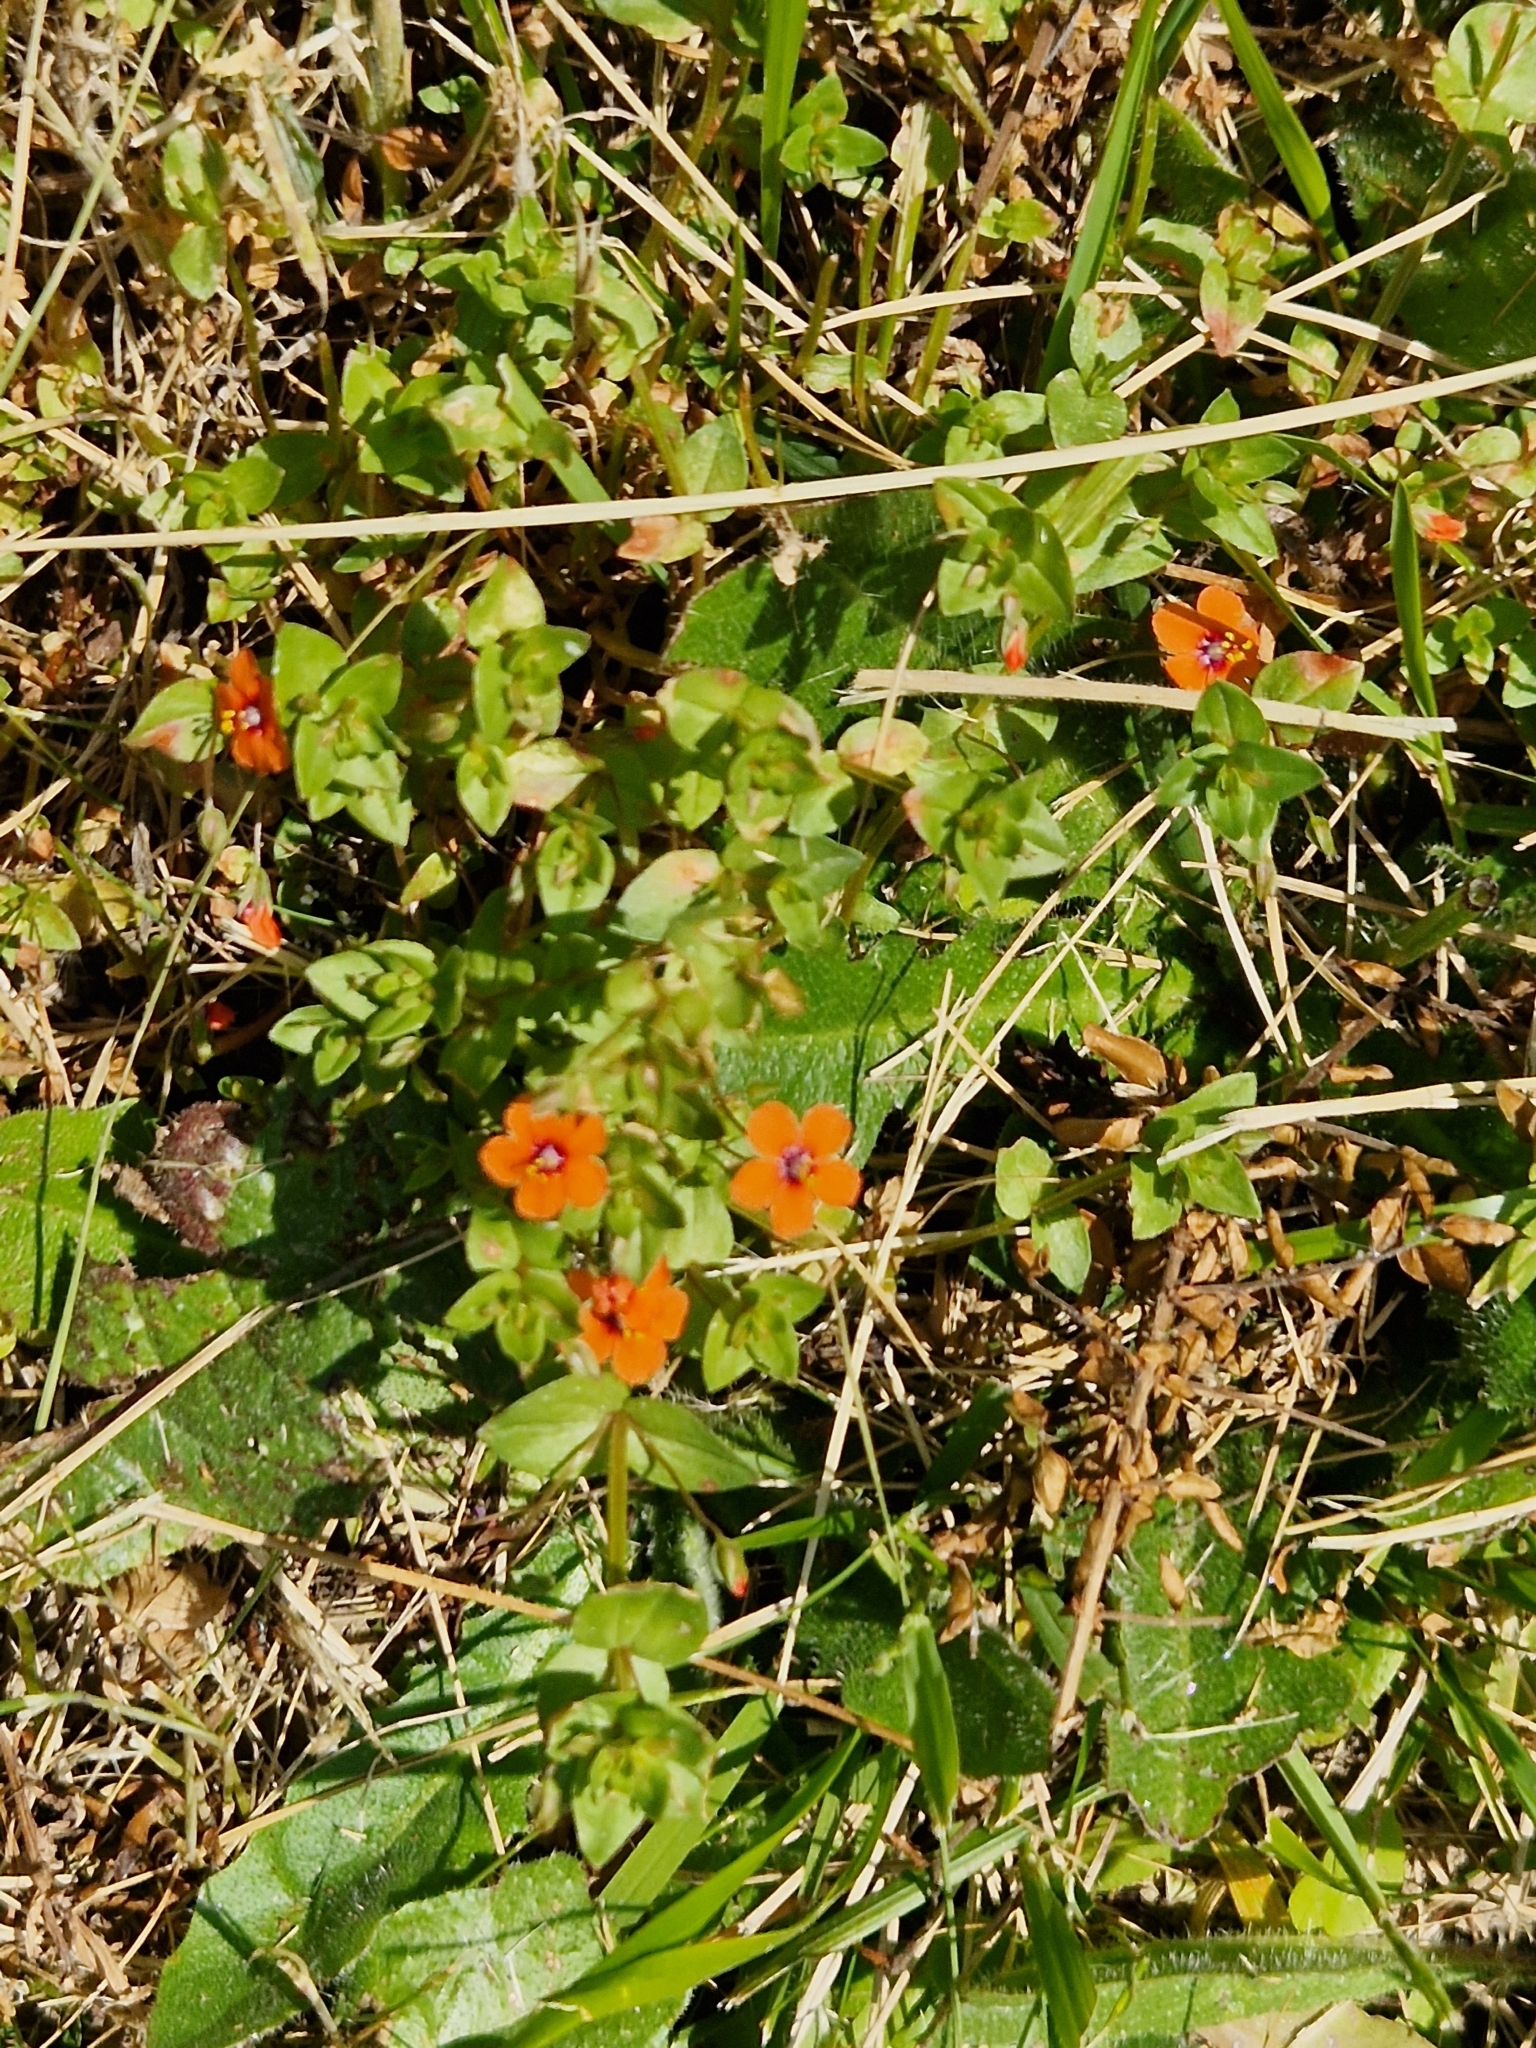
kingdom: Plantae
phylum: Tracheophyta
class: Magnoliopsida
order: Ericales
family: Primulaceae
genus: Lysimachia
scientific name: Lysimachia arvensis
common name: Scarlet pimpernel
